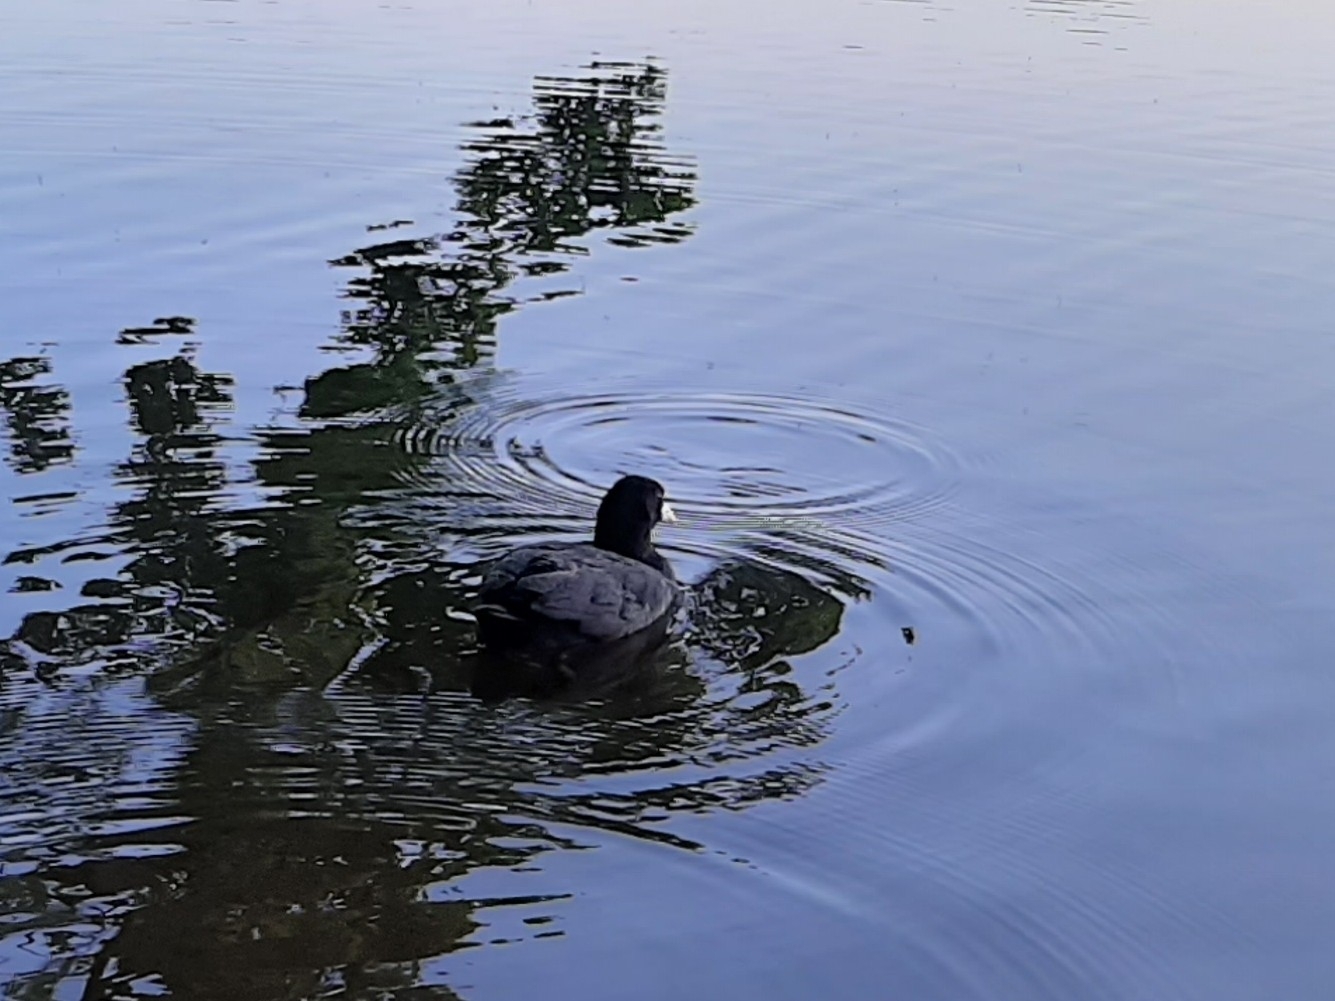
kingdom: Animalia
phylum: Chordata
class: Aves
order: Gruiformes
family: Rallidae
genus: Fulica
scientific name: Fulica atra
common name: Eurasian coot
